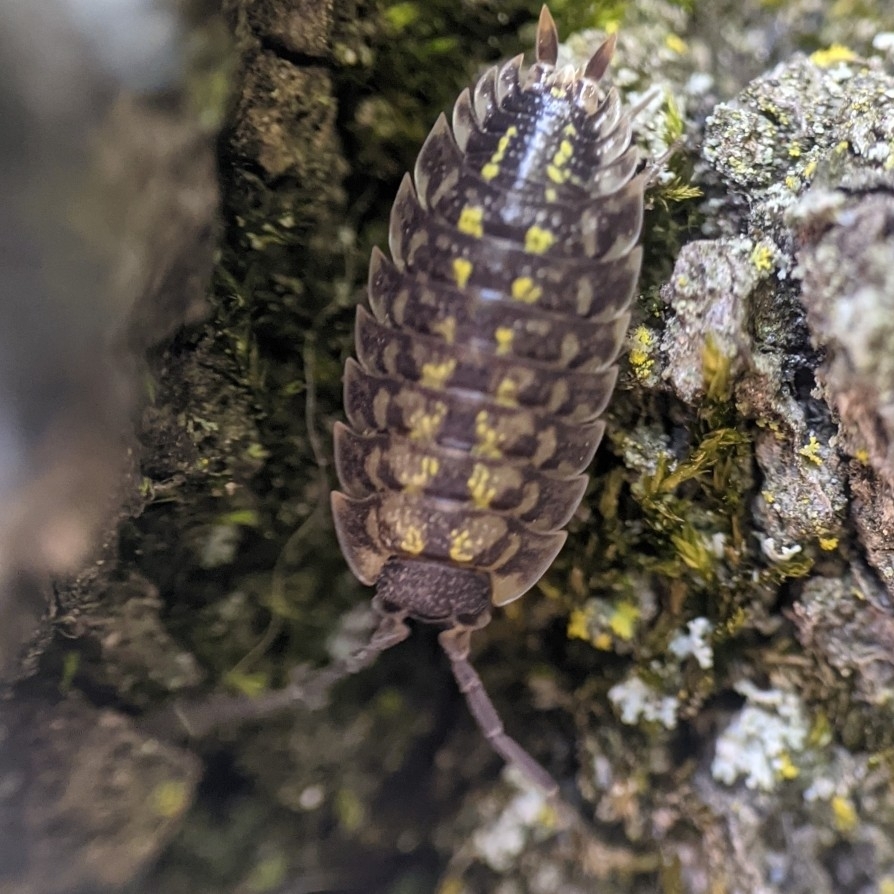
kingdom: Animalia
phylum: Arthropoda
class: Malacostraca
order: Isopoda
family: Porcellionidae
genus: Porcellio
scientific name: Porcellio spinicornis
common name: Painted woodlouse
